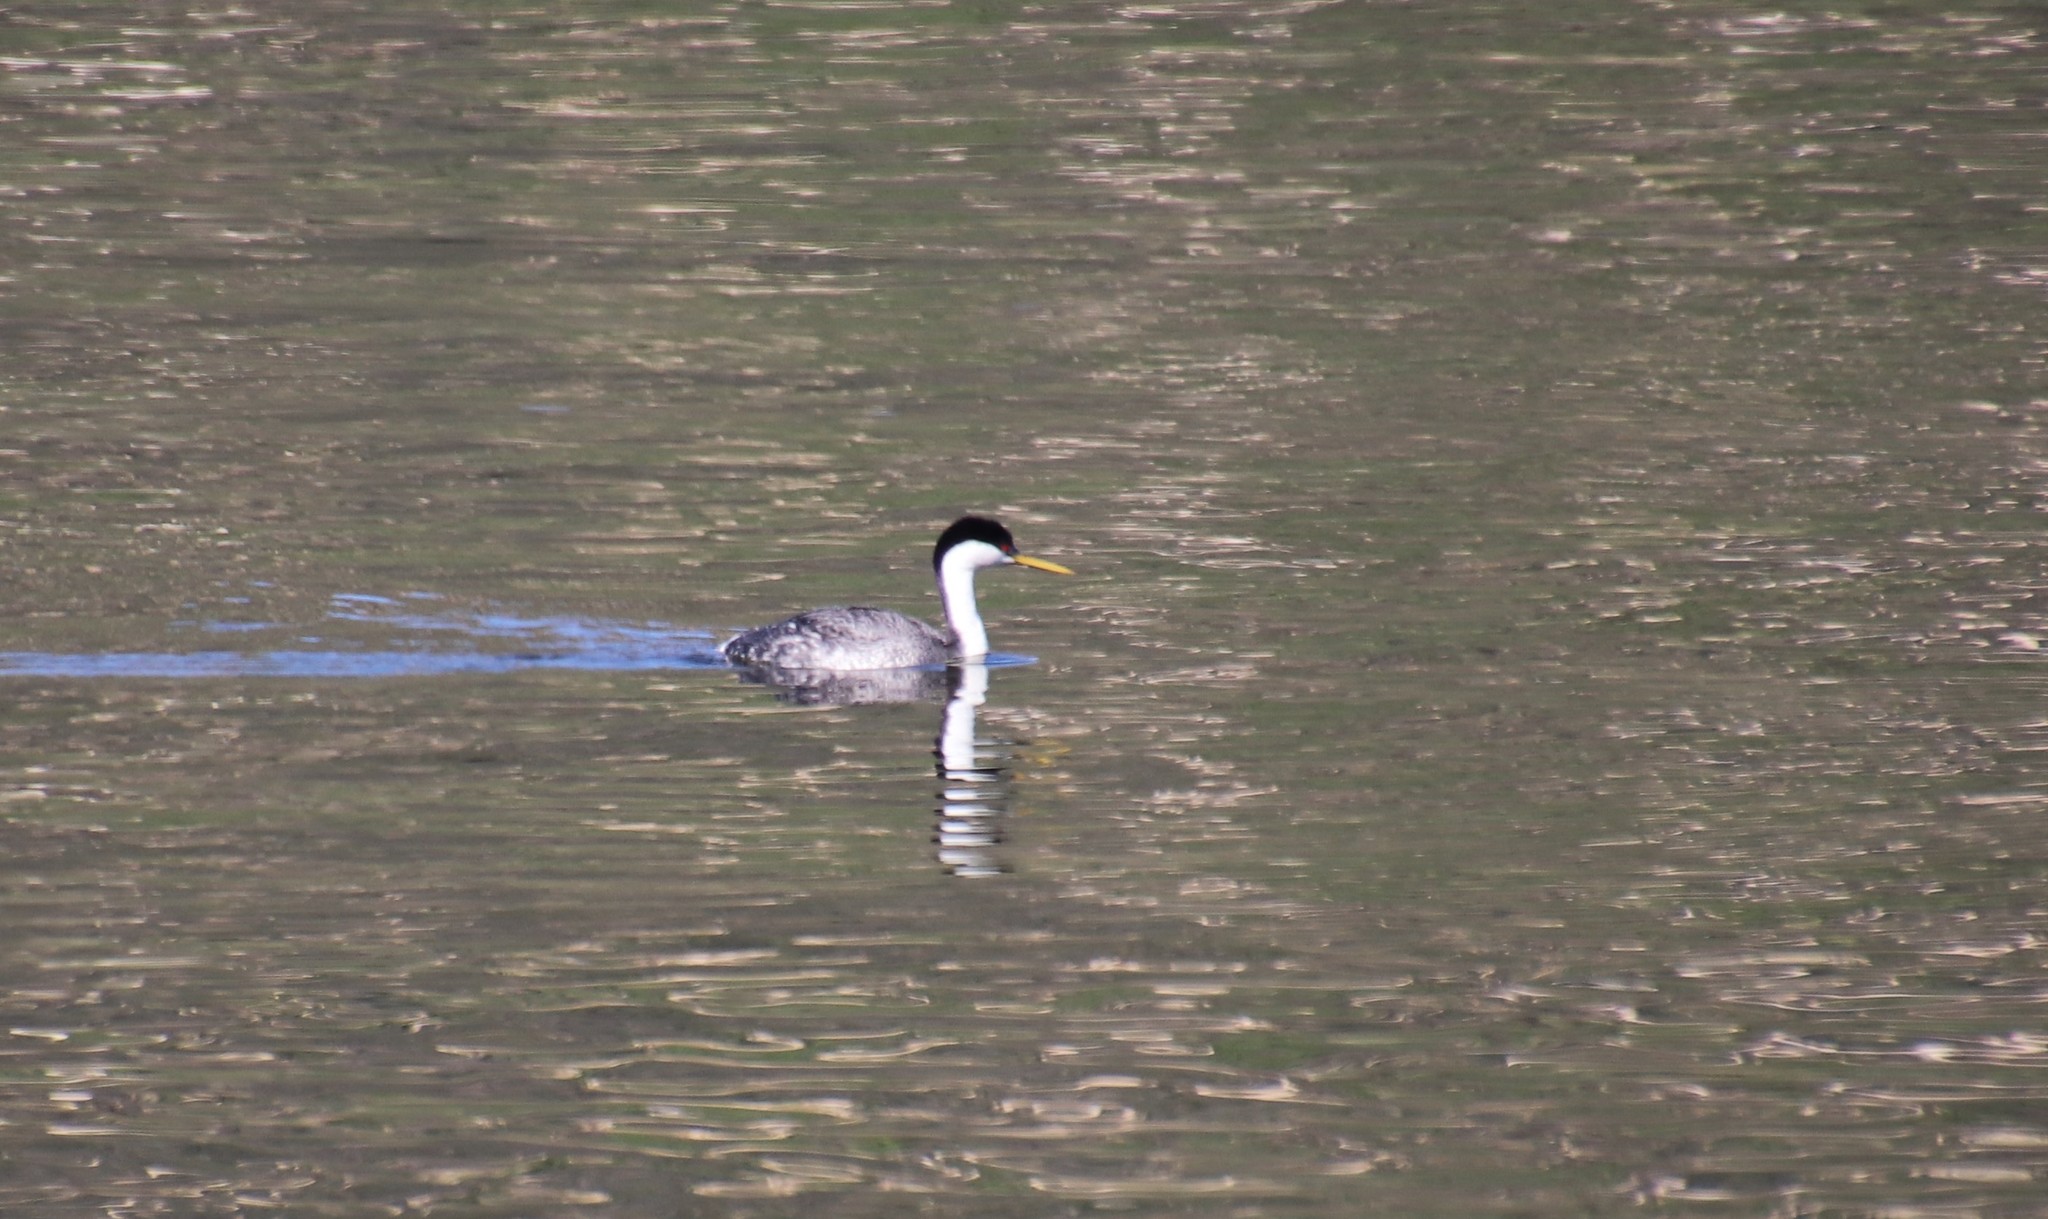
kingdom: Animalia
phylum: Chordata
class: Aves
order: Podicipediformes
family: Podicipedidae
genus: Aechmophorus
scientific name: Aechmophorus occidentalis
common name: Western grebe
